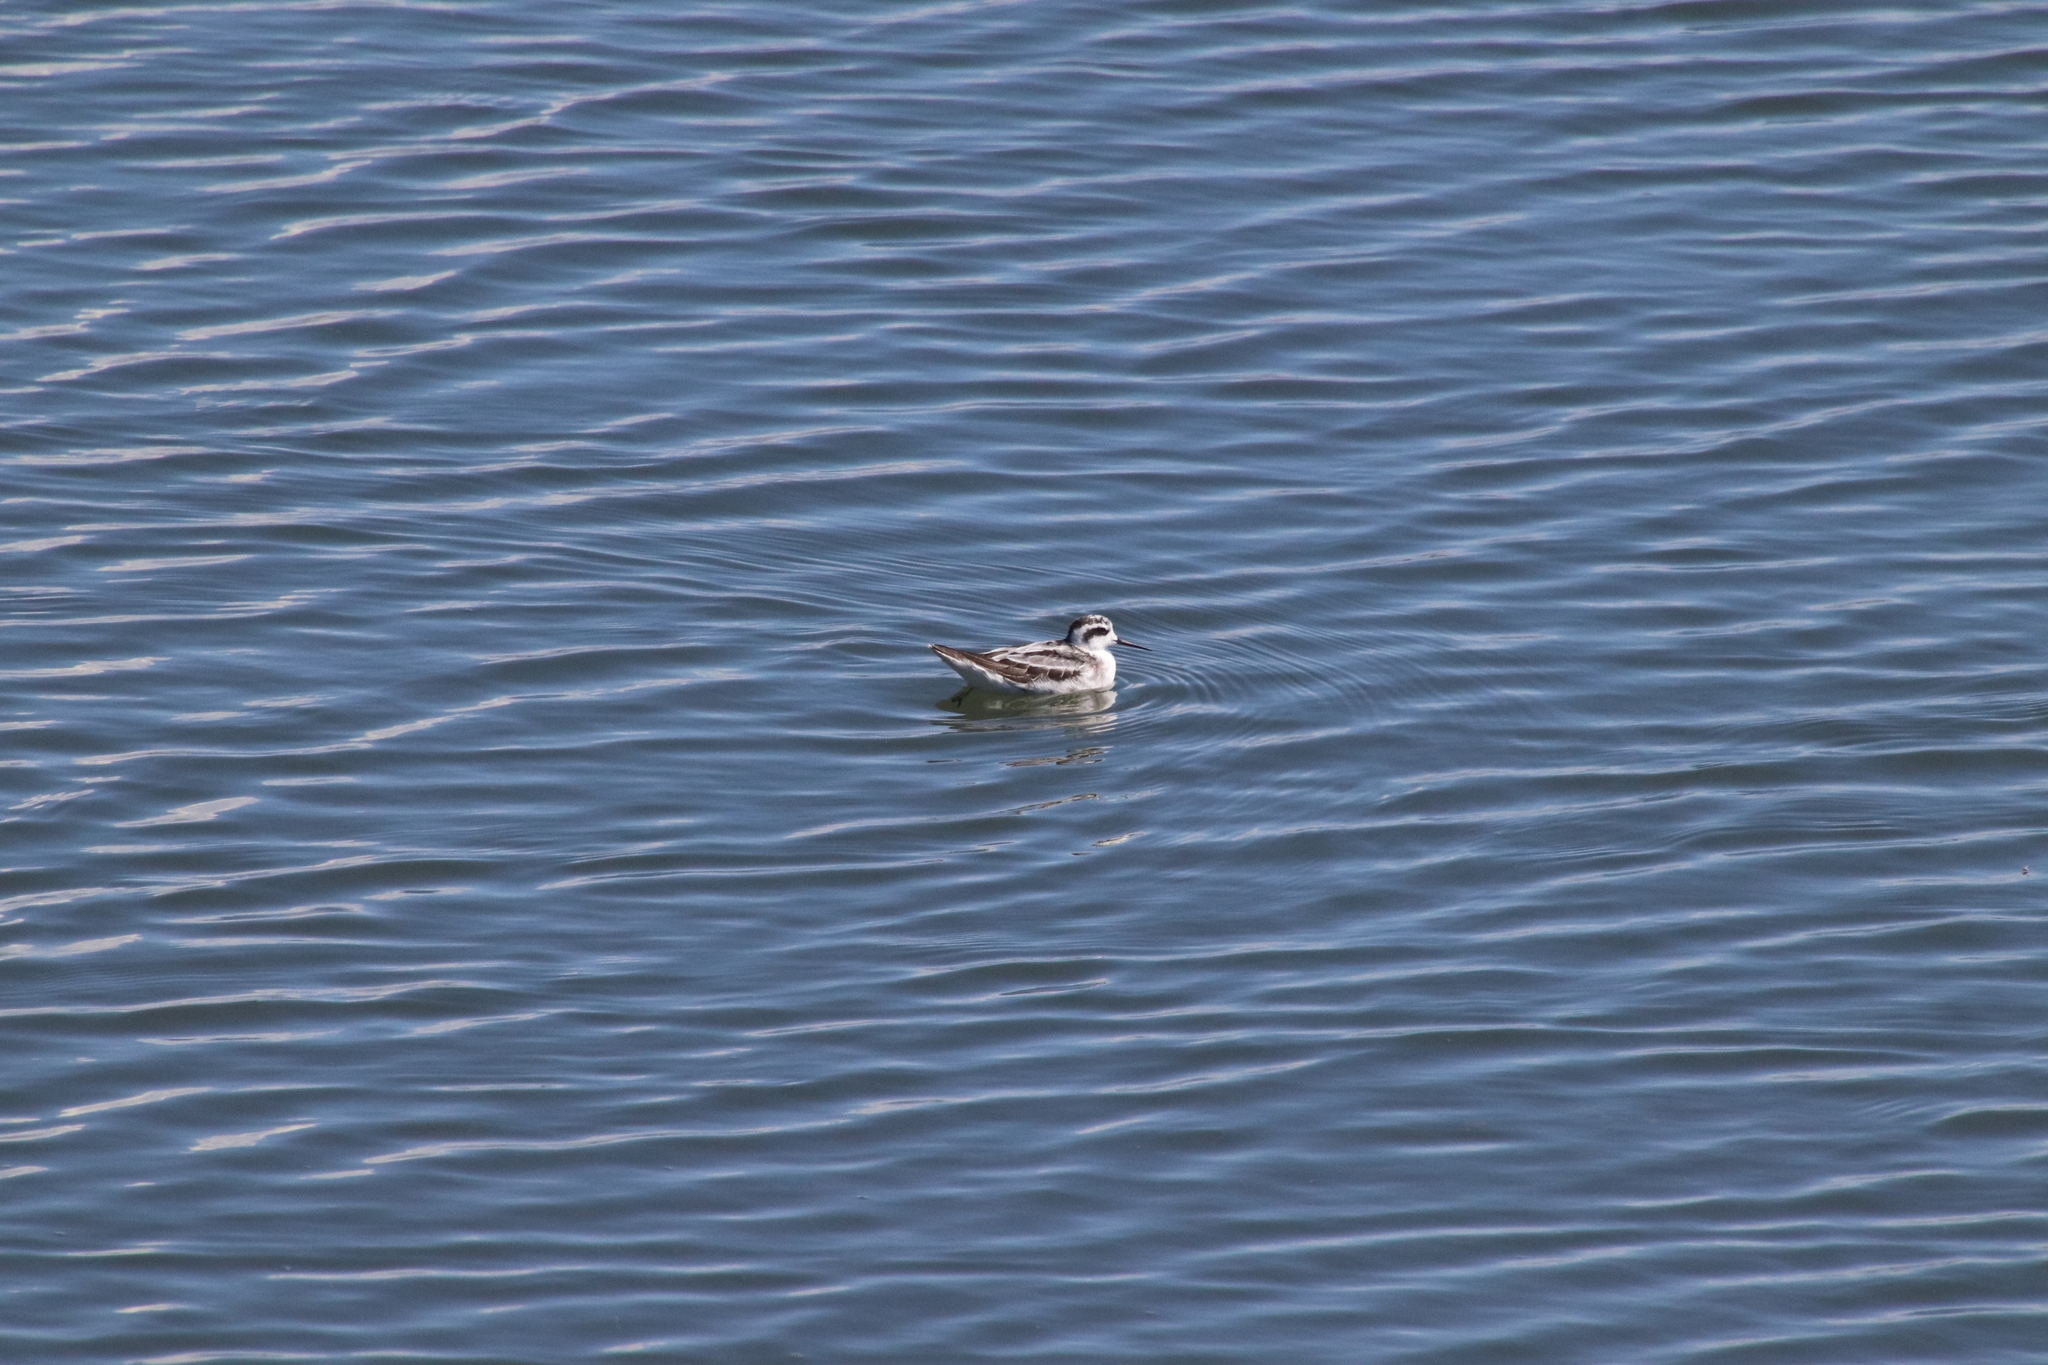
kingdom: Animalia
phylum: Chordata
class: Aves
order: Charadriiformes
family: Scolopacidae
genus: Phalaropus
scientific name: Phalaropus lobatus
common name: Red-necked phalarope
